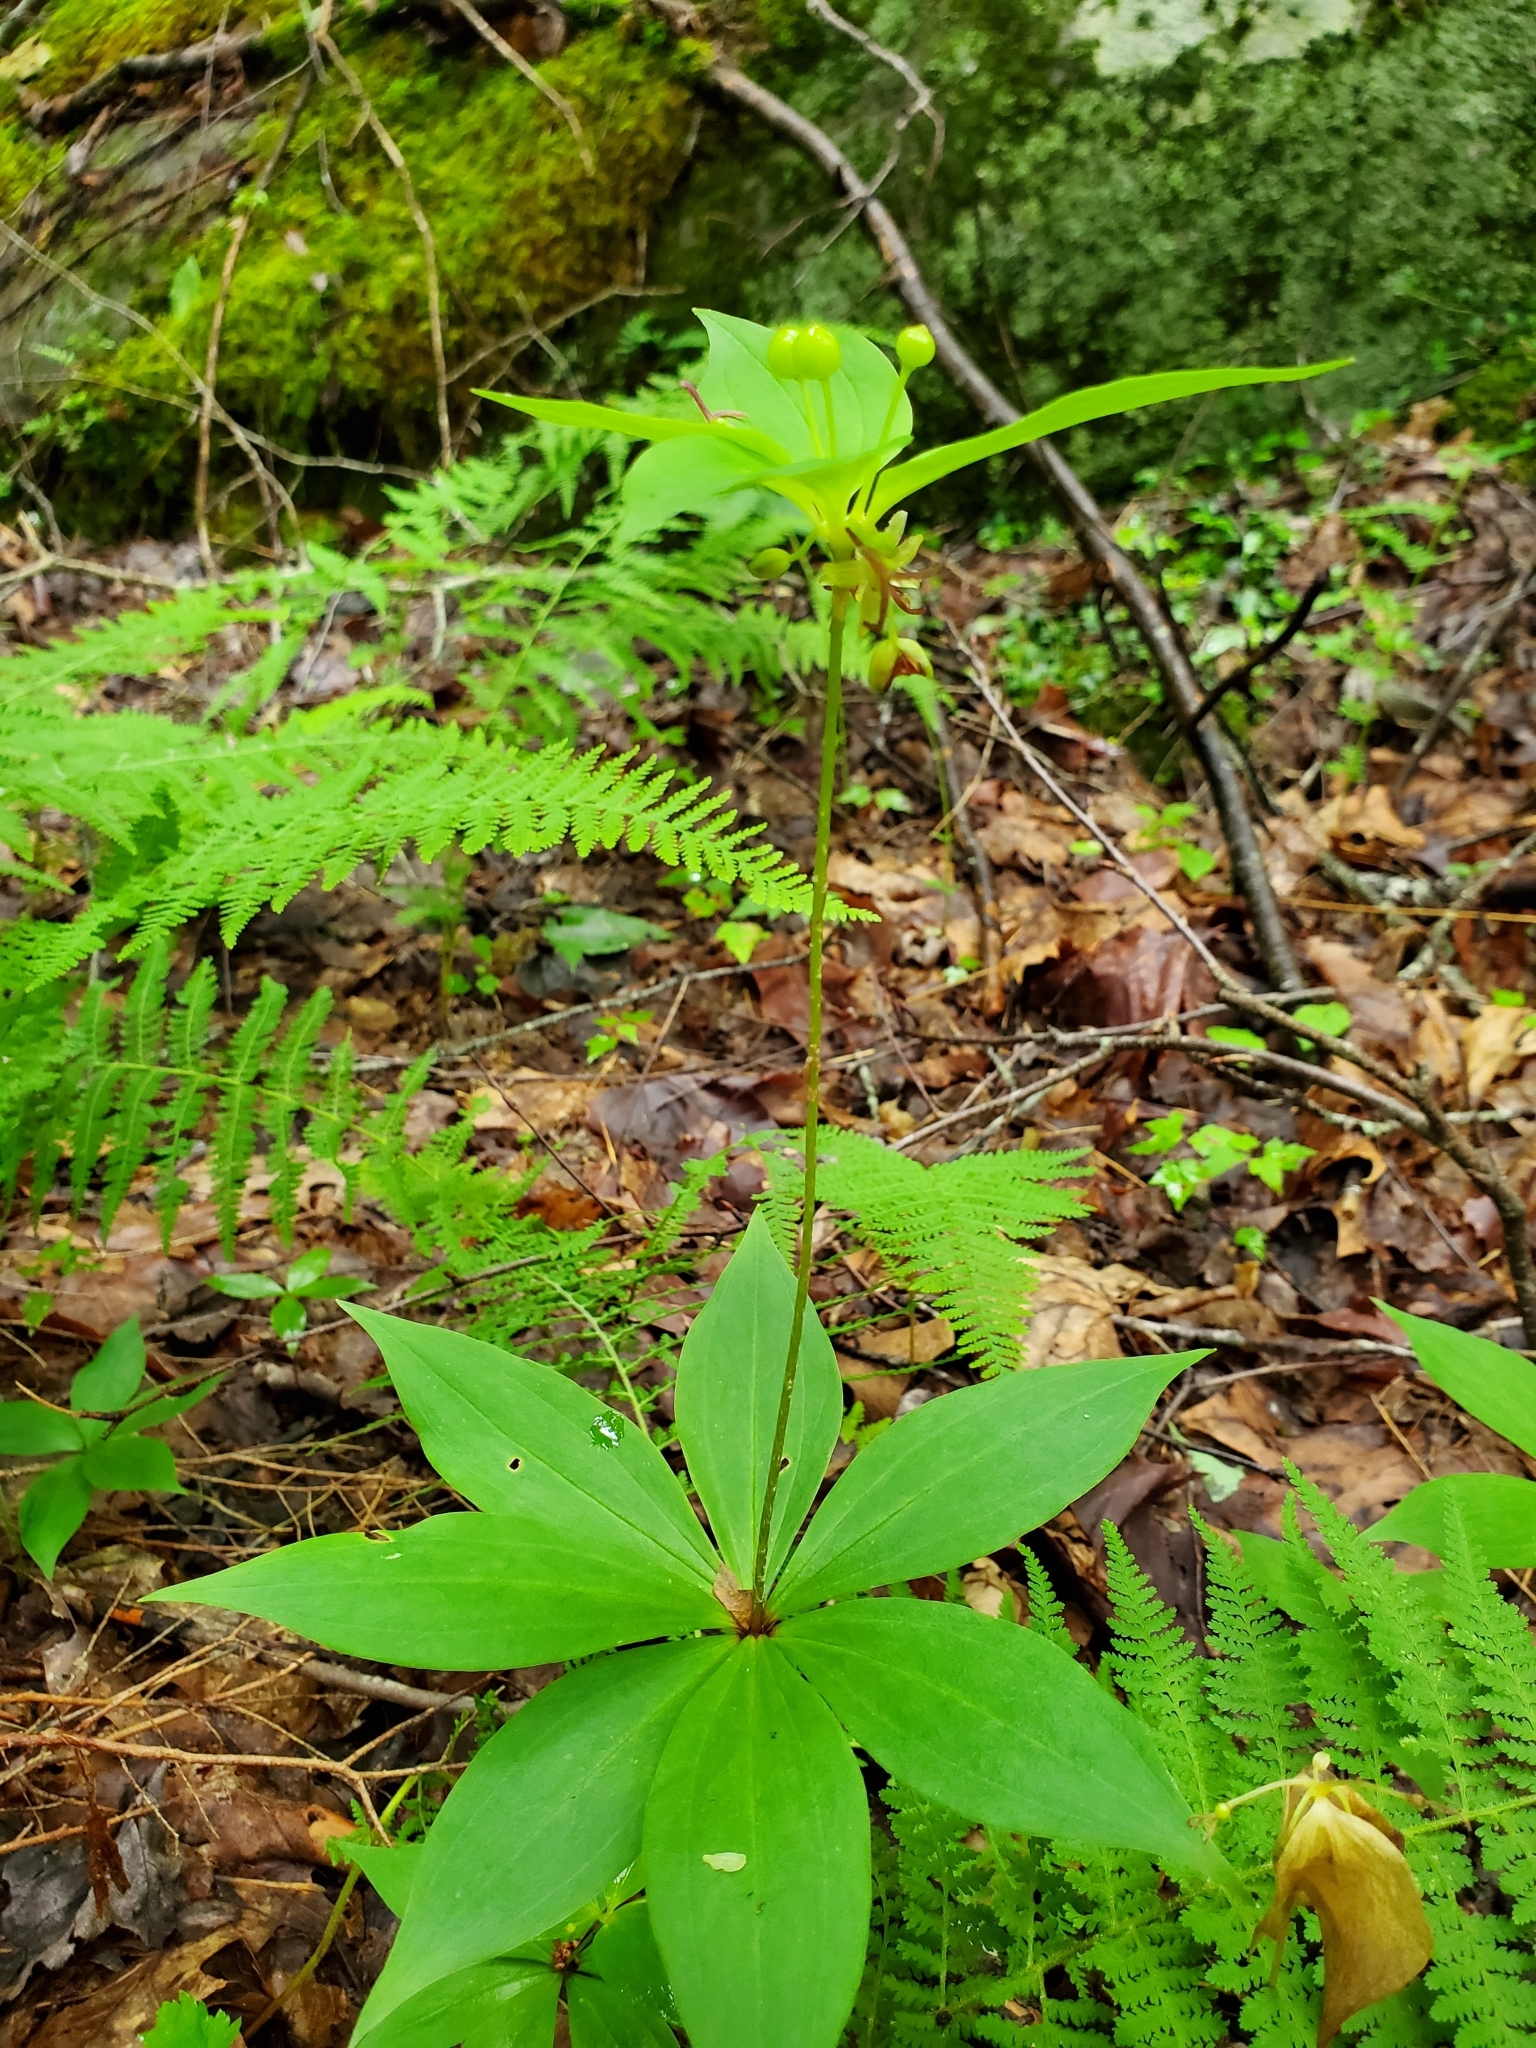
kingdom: Plantae
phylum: Tracheophyta
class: Liliopsida
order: Liliales
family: Liliaceae
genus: Medeola
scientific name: Medeola virginiana
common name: Indian cucumber-root
